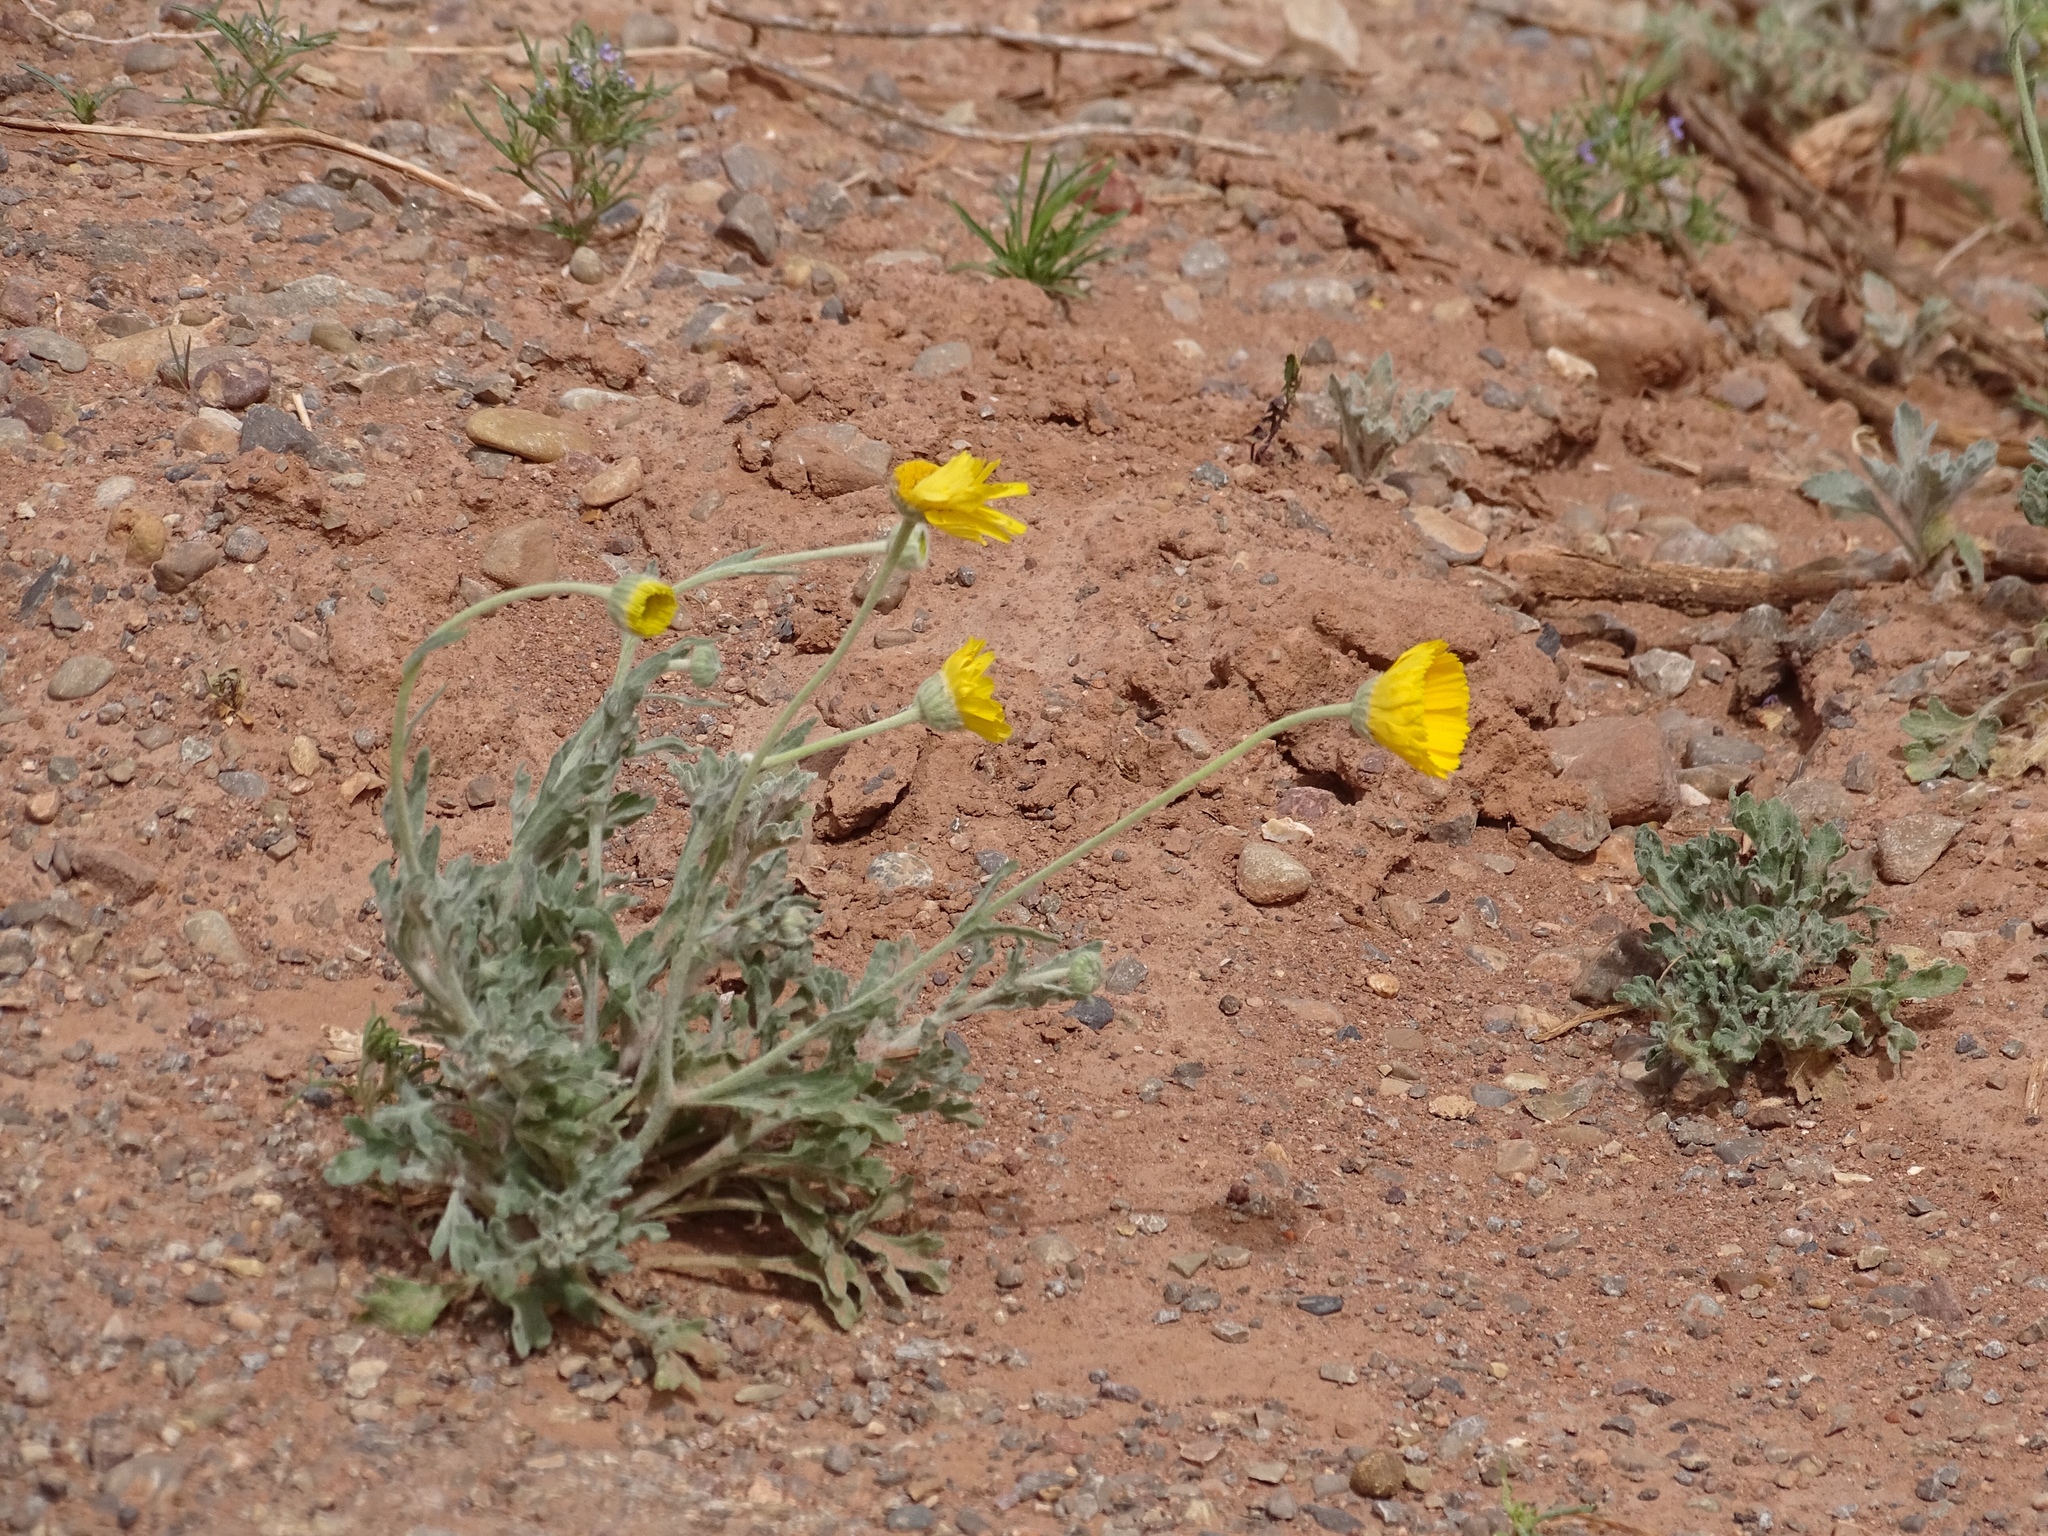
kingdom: Plantae
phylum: Tracheophyta
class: Magnoliopsida
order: Asterales
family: Asteraceae
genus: Baileya
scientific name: Baileya multiradiata
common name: Desert-marigold
